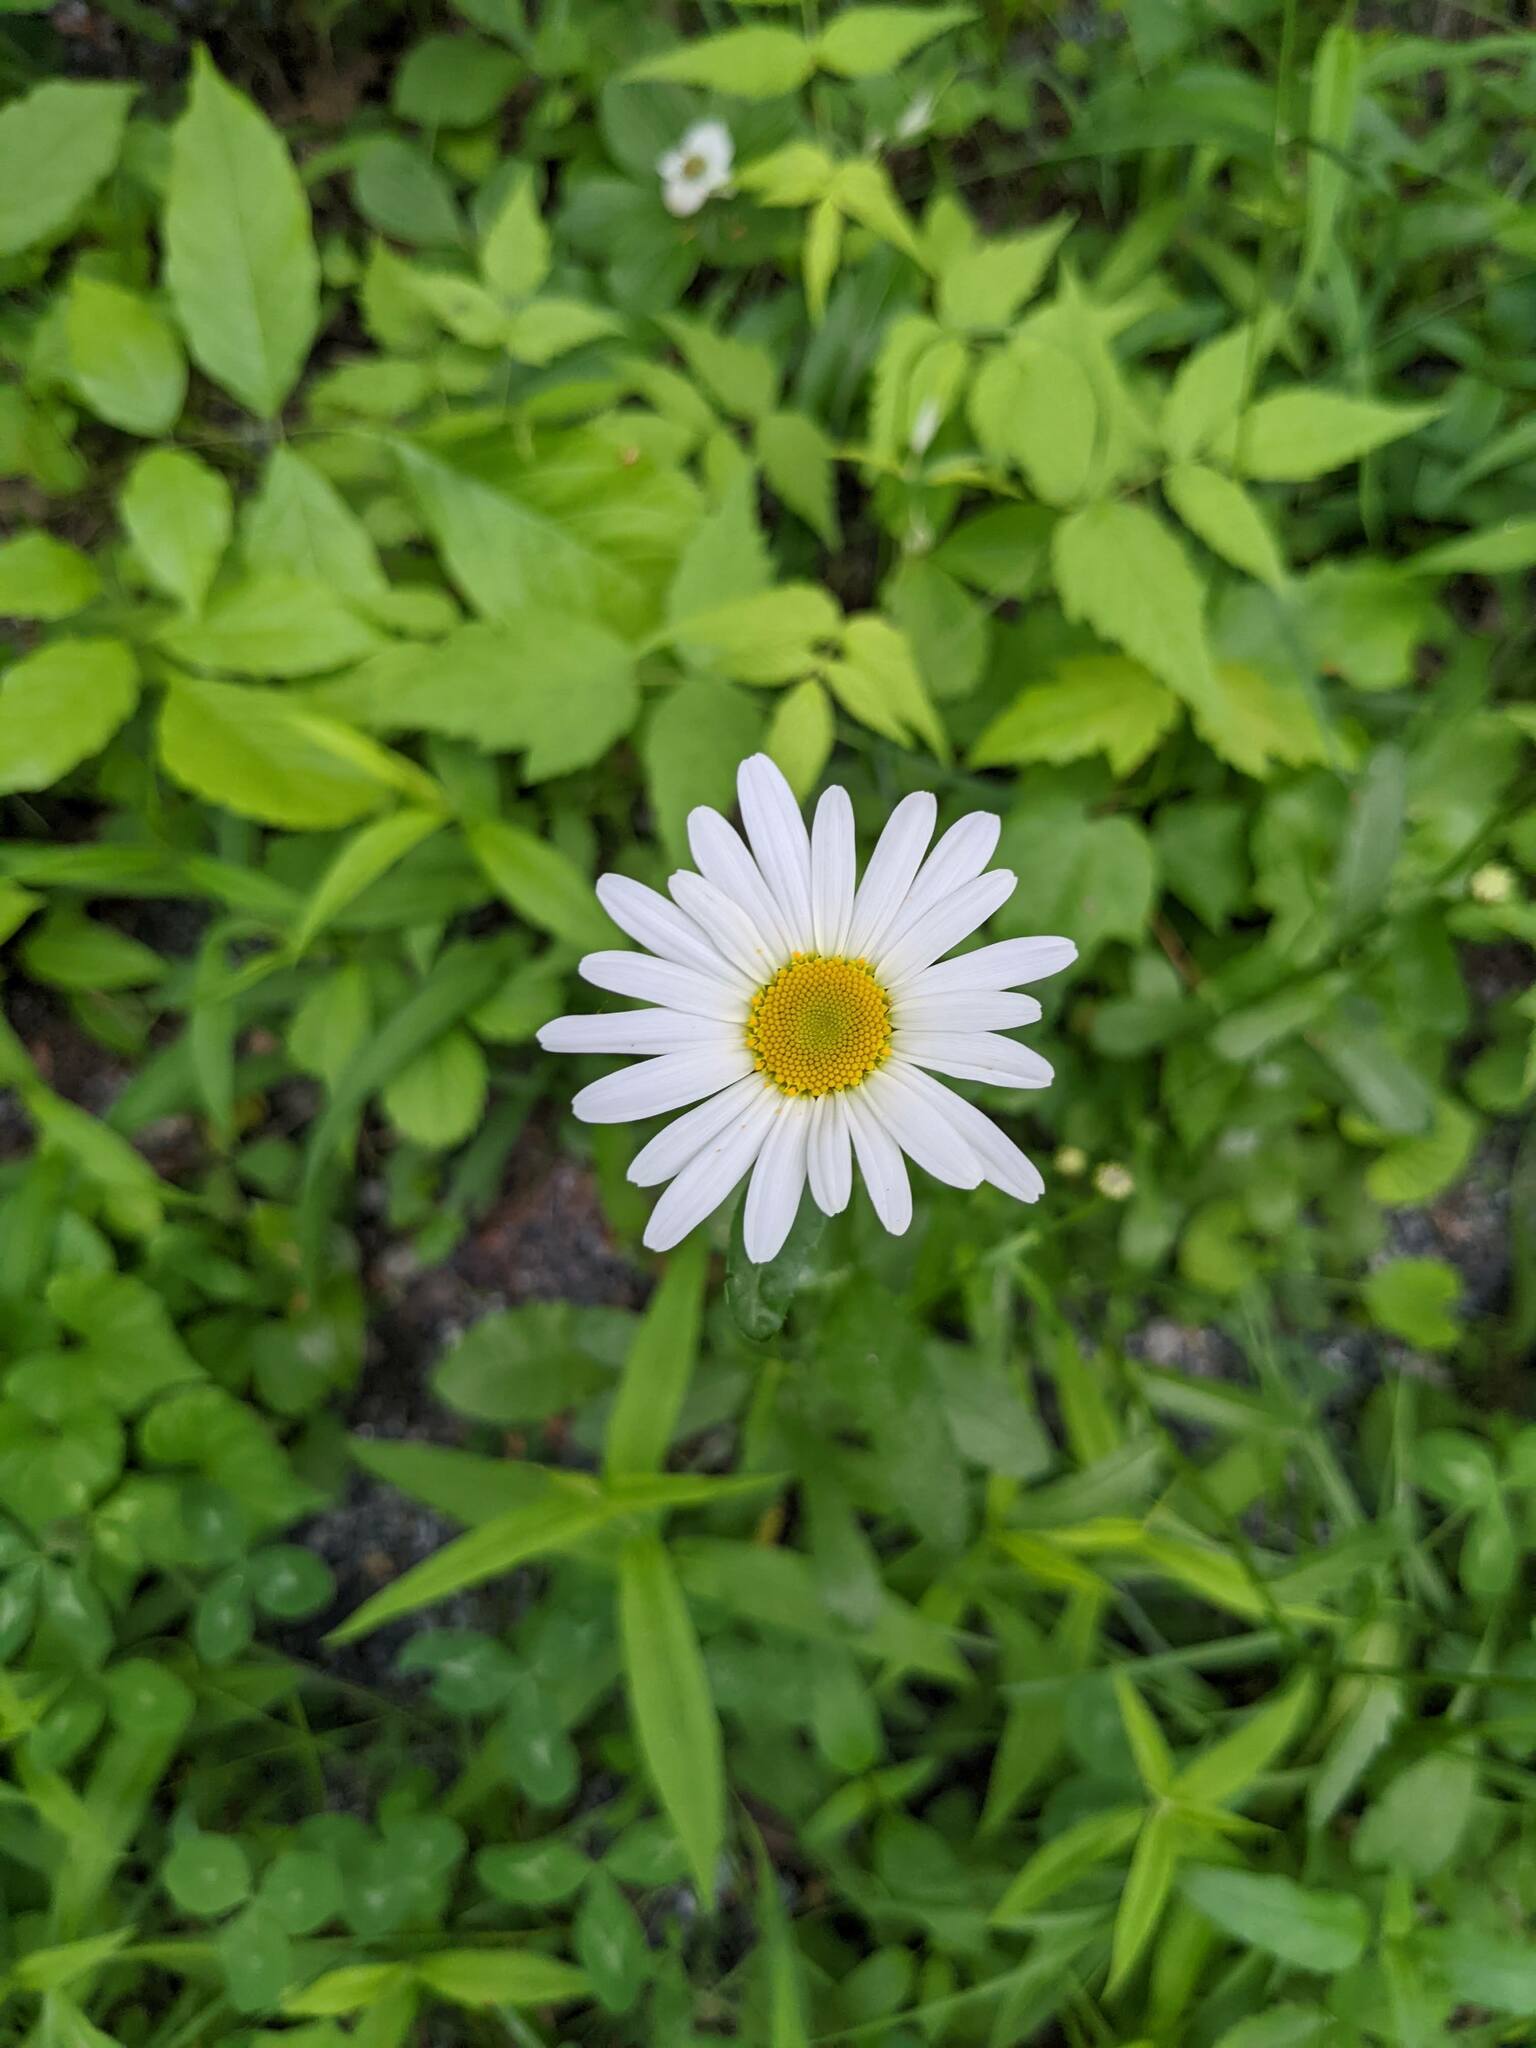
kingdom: Plantae
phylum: Tracheophyta
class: Magnoliopsida
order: Asterales
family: Asteraceae
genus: Leucanthemum
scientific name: Leucanthemum vulgare
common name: Oxeye daisy
